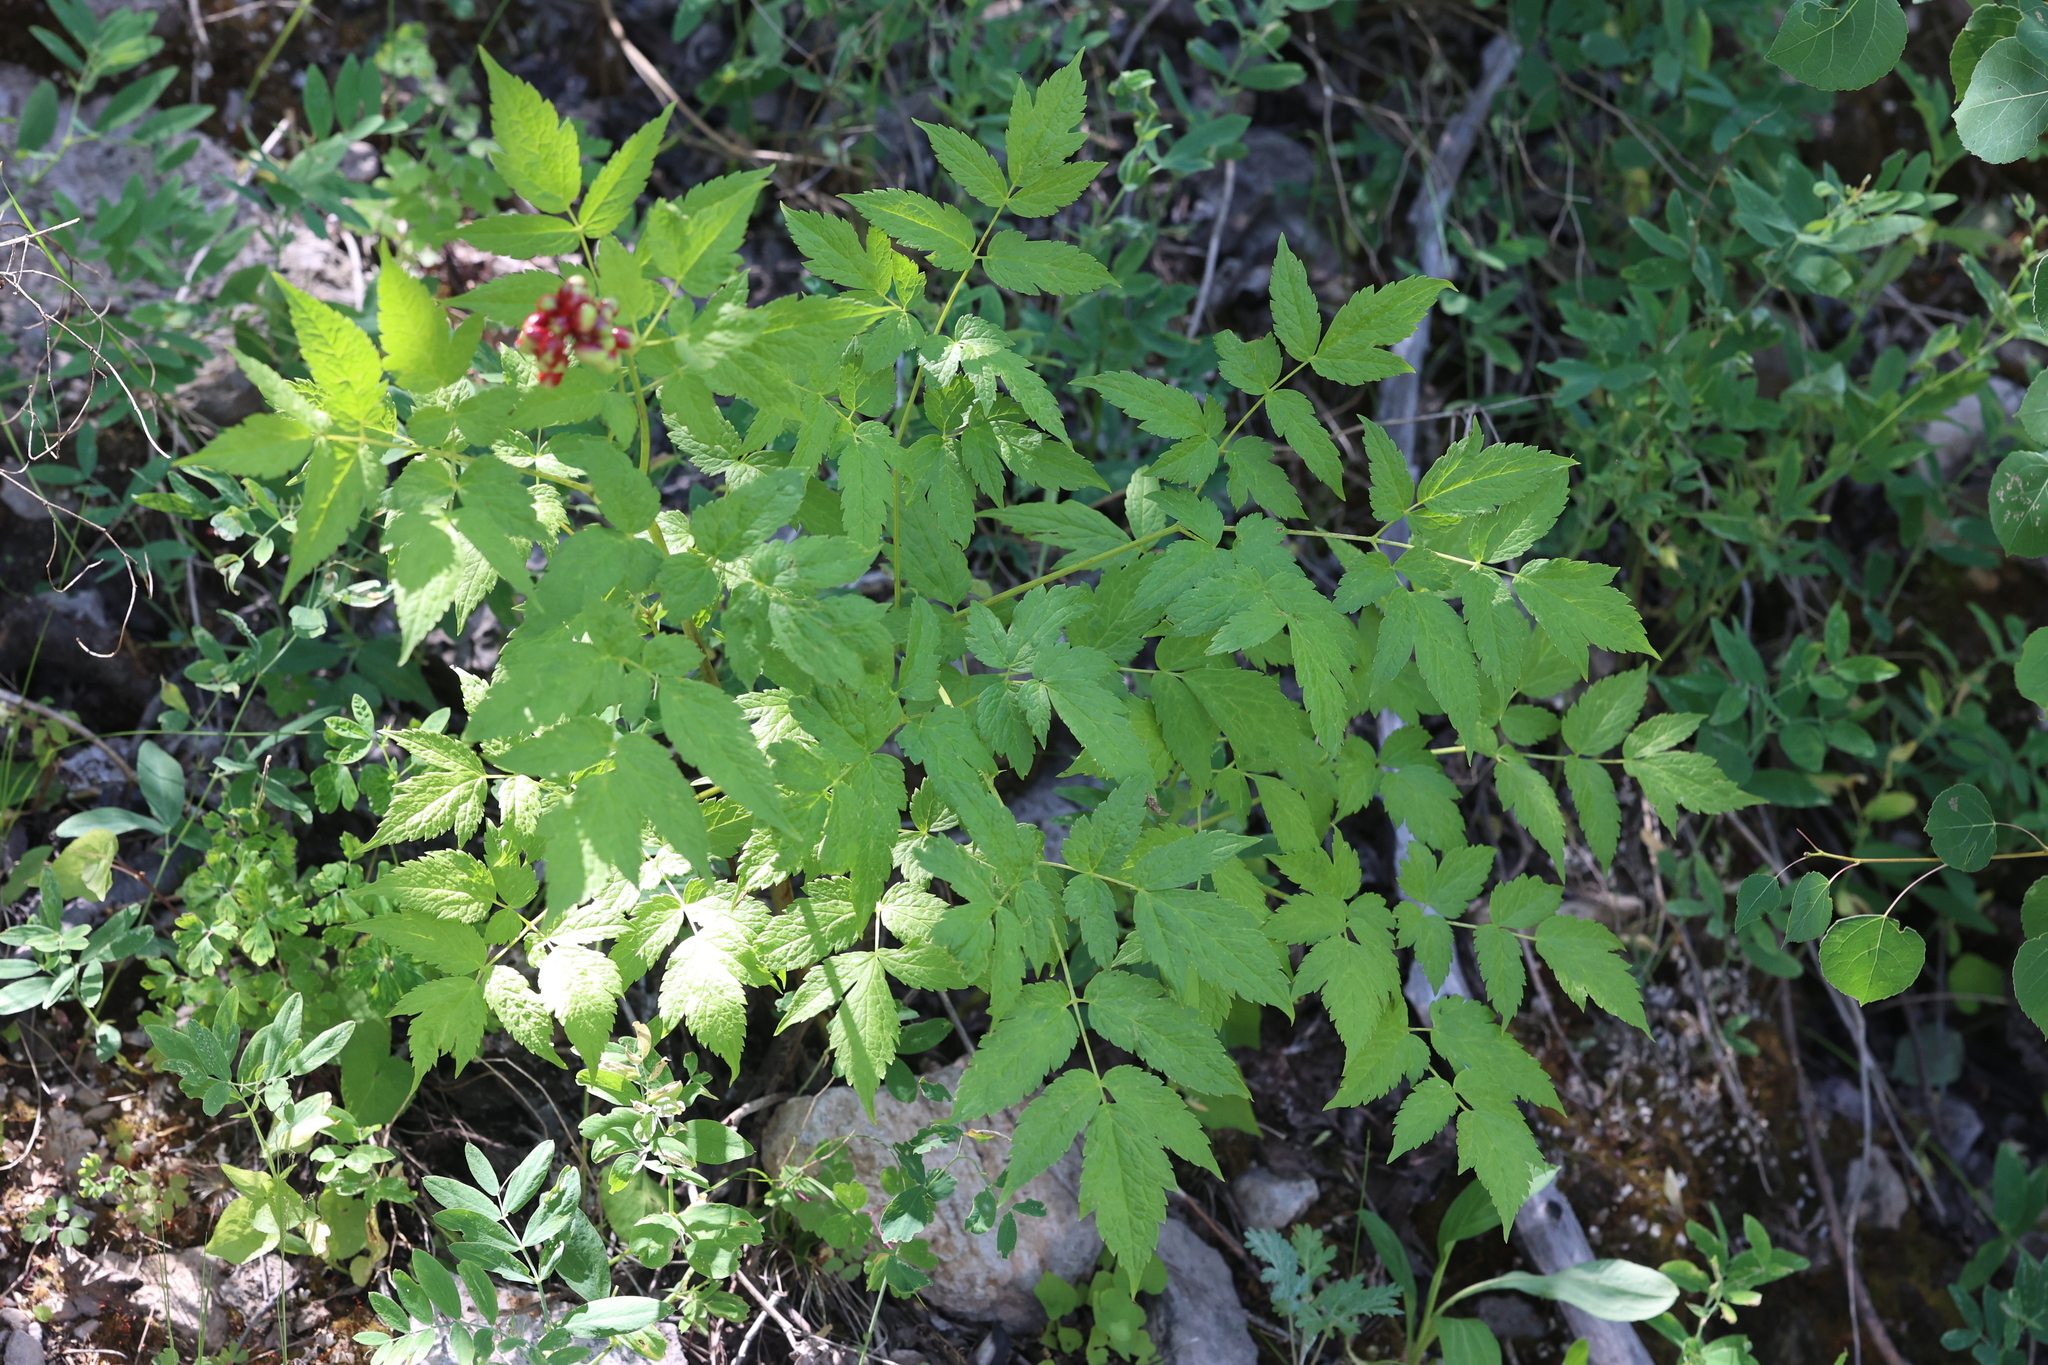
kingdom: Plantae
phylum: Tracheophyta
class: Magnoliopsida
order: Ranunculales
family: Ranunculaceae
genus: Actaea
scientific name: Actaea rubra
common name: Red baneberry
